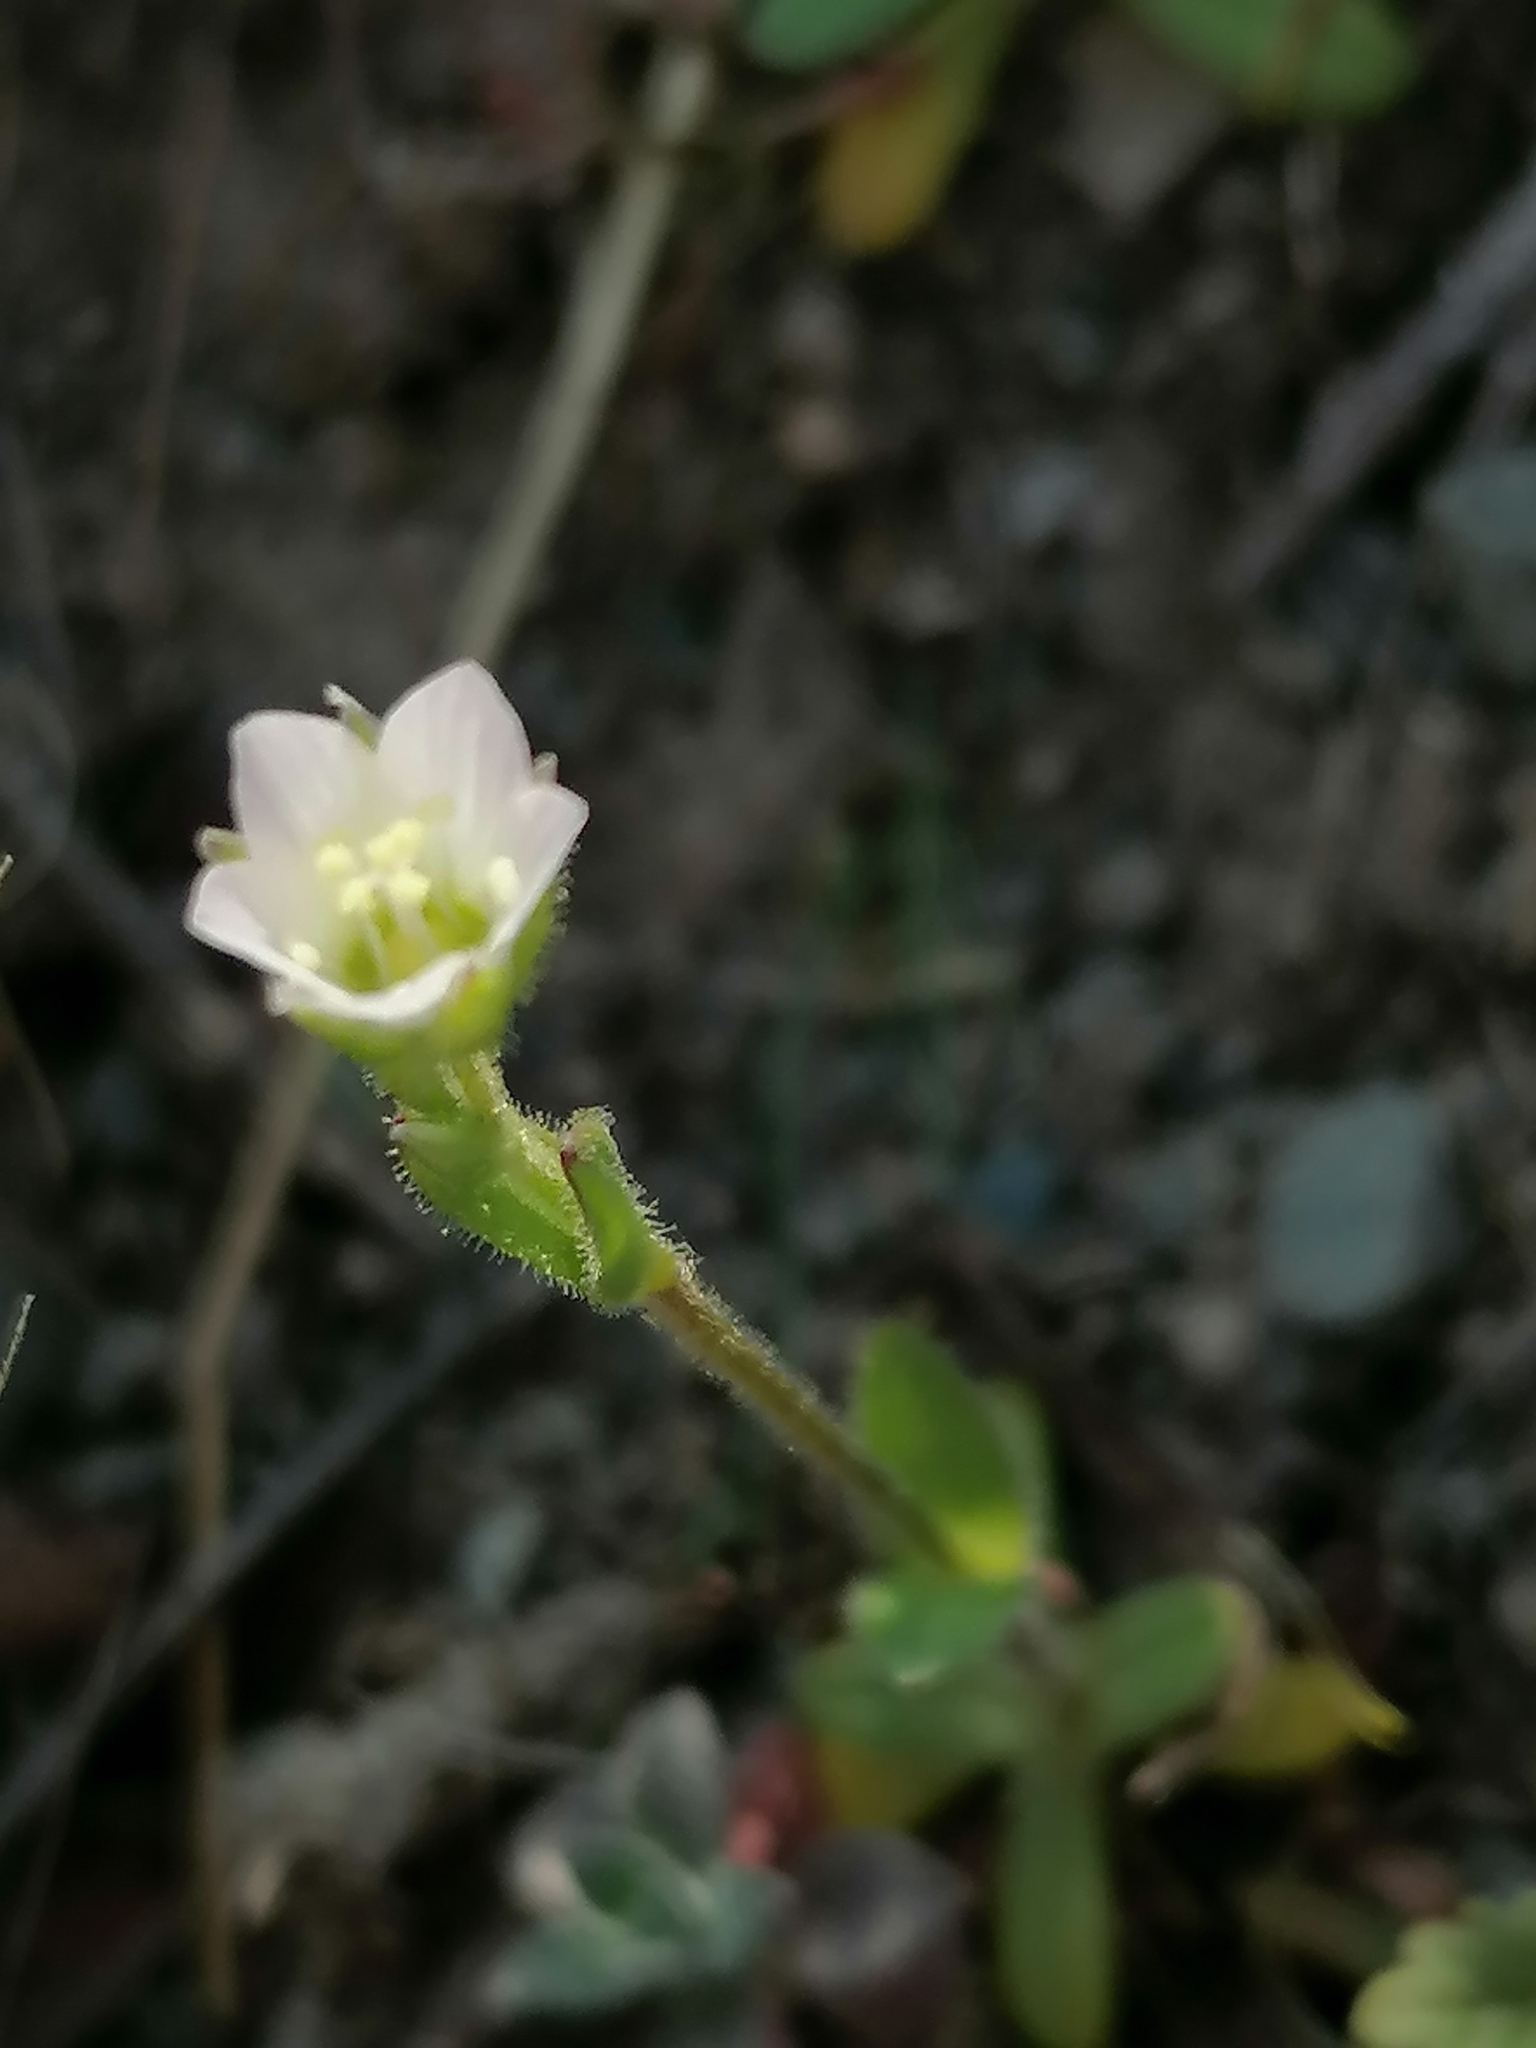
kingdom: Plantae
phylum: Tracheophyta
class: Magnoliopsida
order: Caryophyllales
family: Caryophyllaceae
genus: Holosteum
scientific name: Holosteum glutinosum
